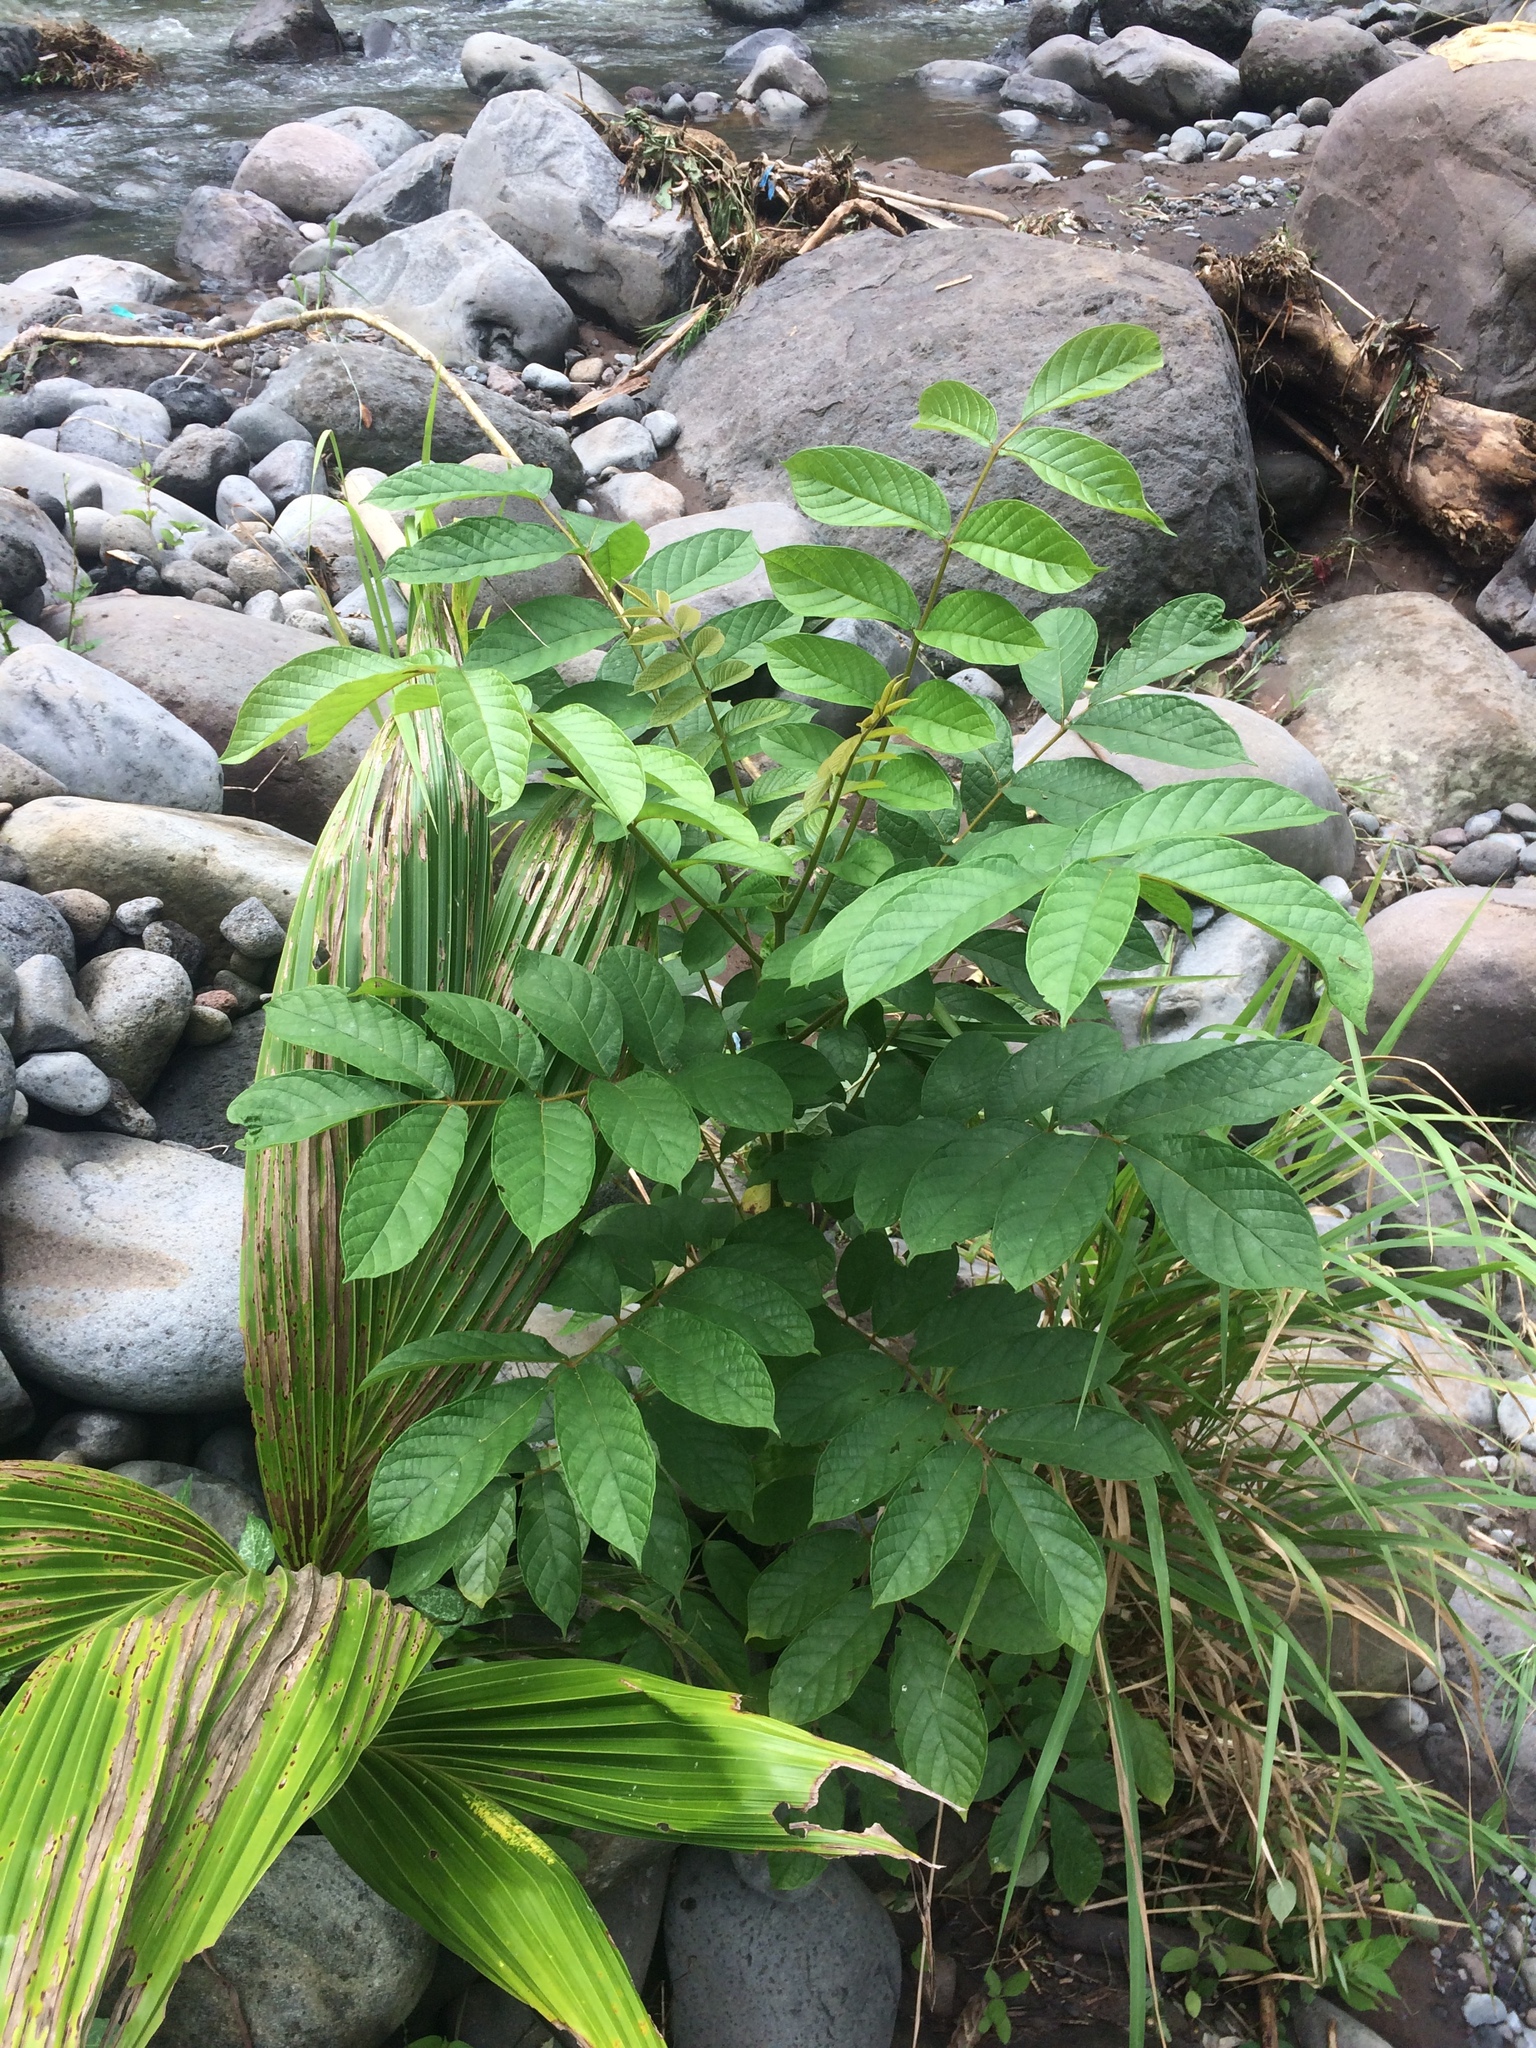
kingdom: Plantae
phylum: Tracheophyta
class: Magnoliopsida
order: Lamiales
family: Bignoniaceae
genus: Spathodea
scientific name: Spathodea campanulata
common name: African tuliptree
